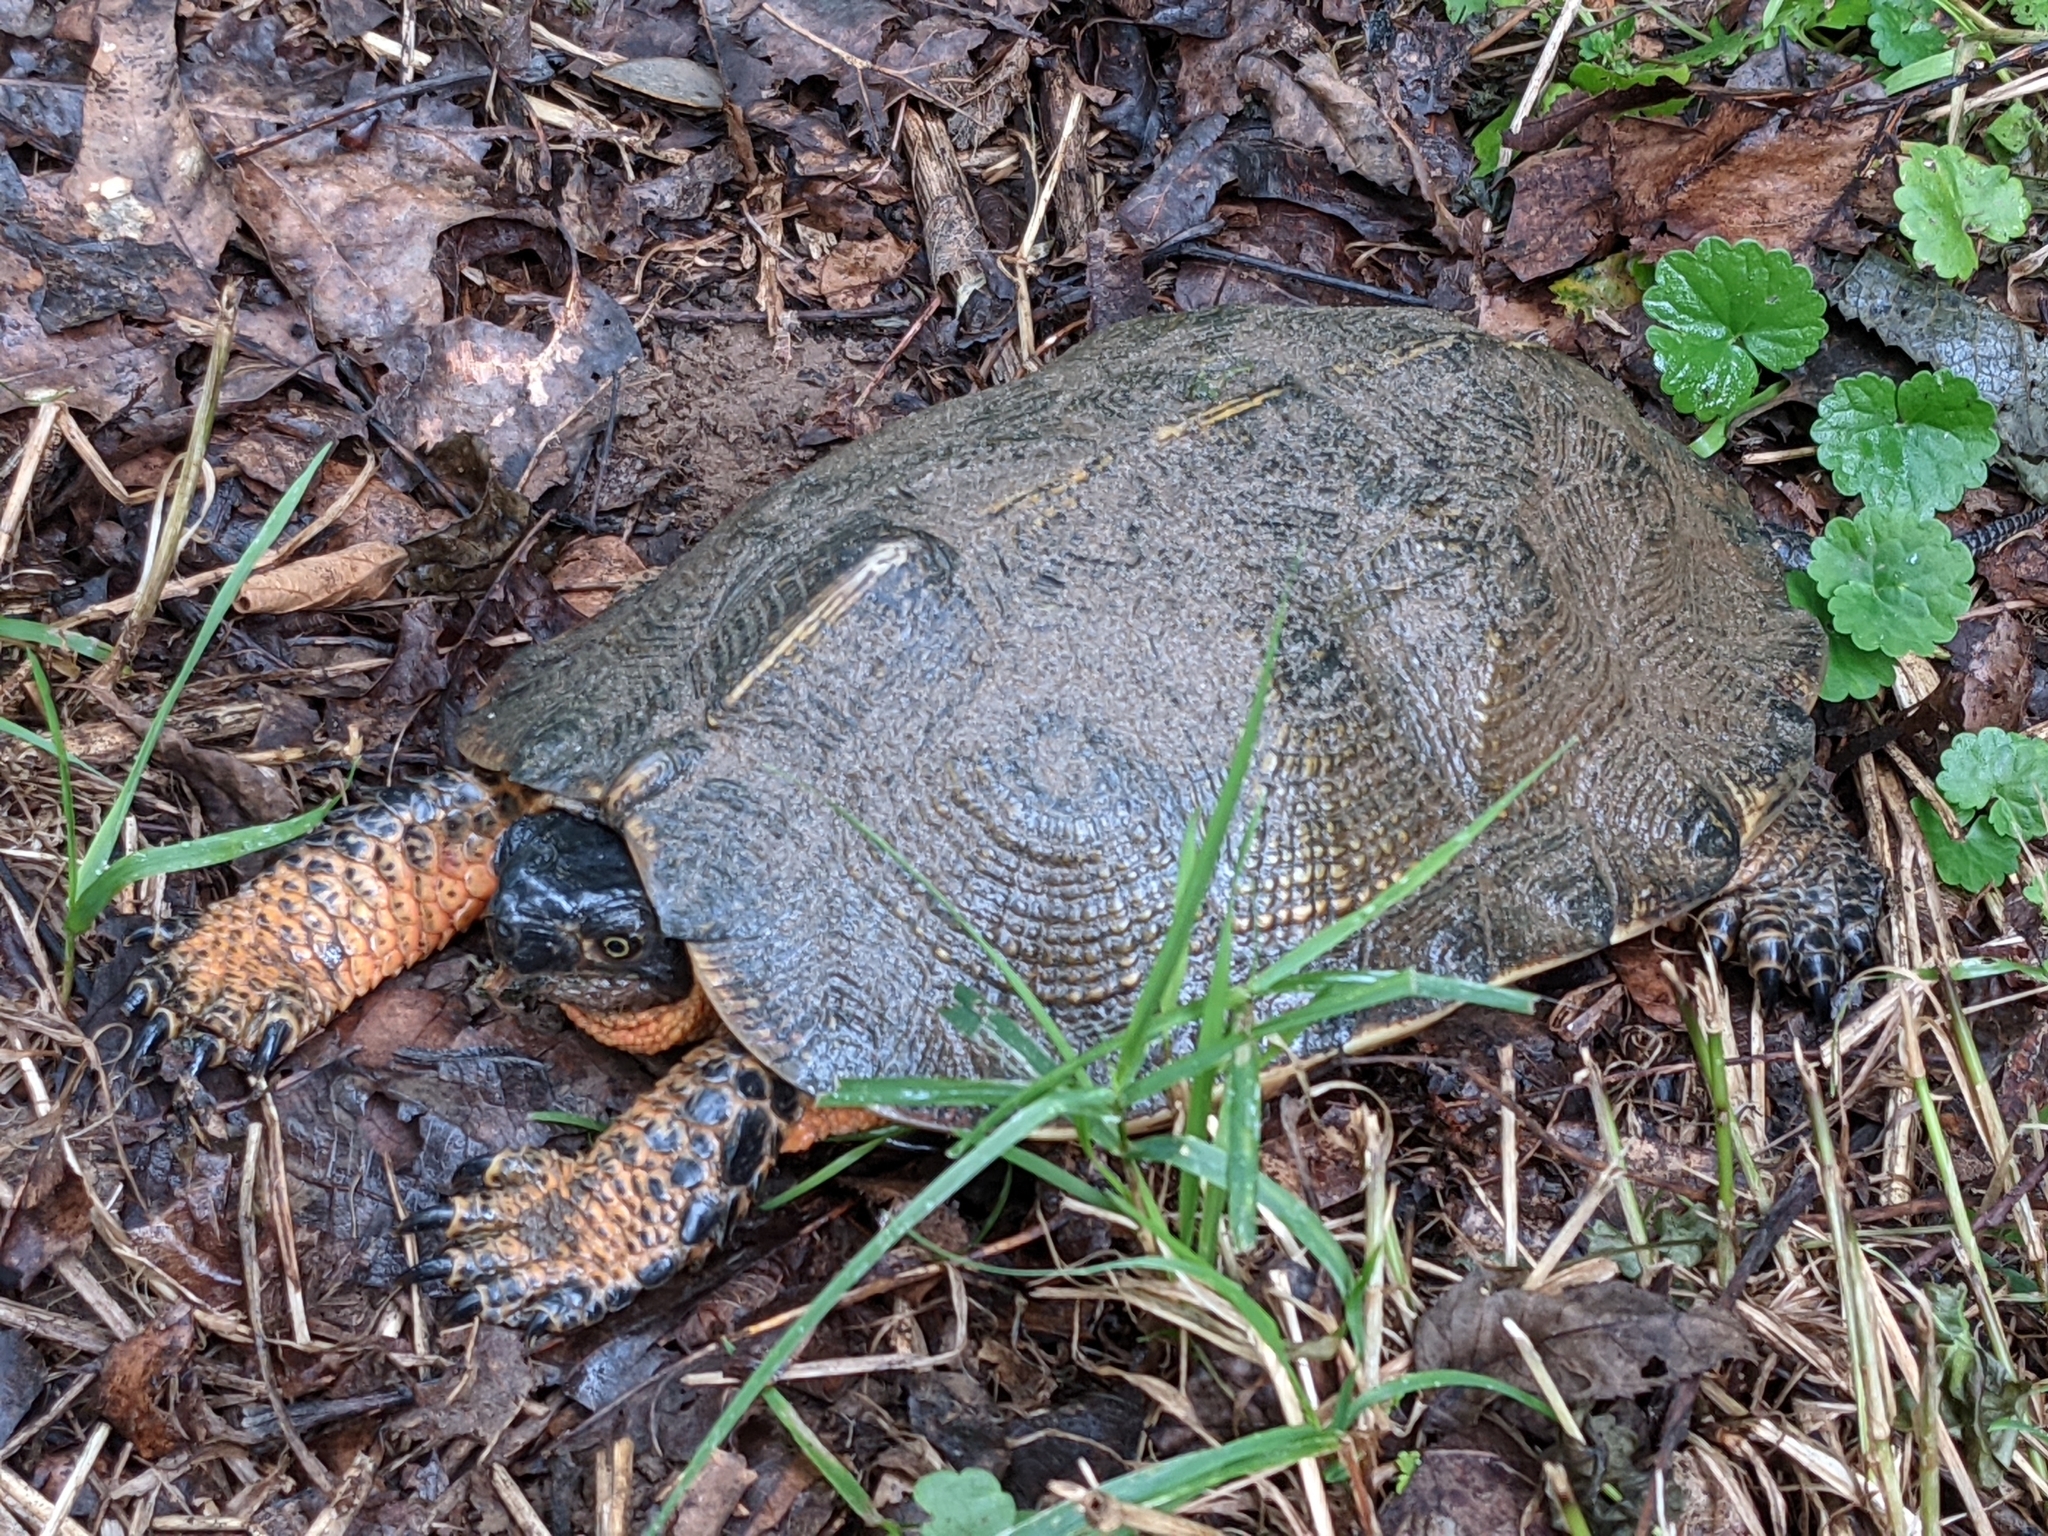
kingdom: Animalia
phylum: Chordata
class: Testudines
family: Emydidae
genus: Glyptemys
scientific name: Glyptemys insculpta
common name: Wood turtle
